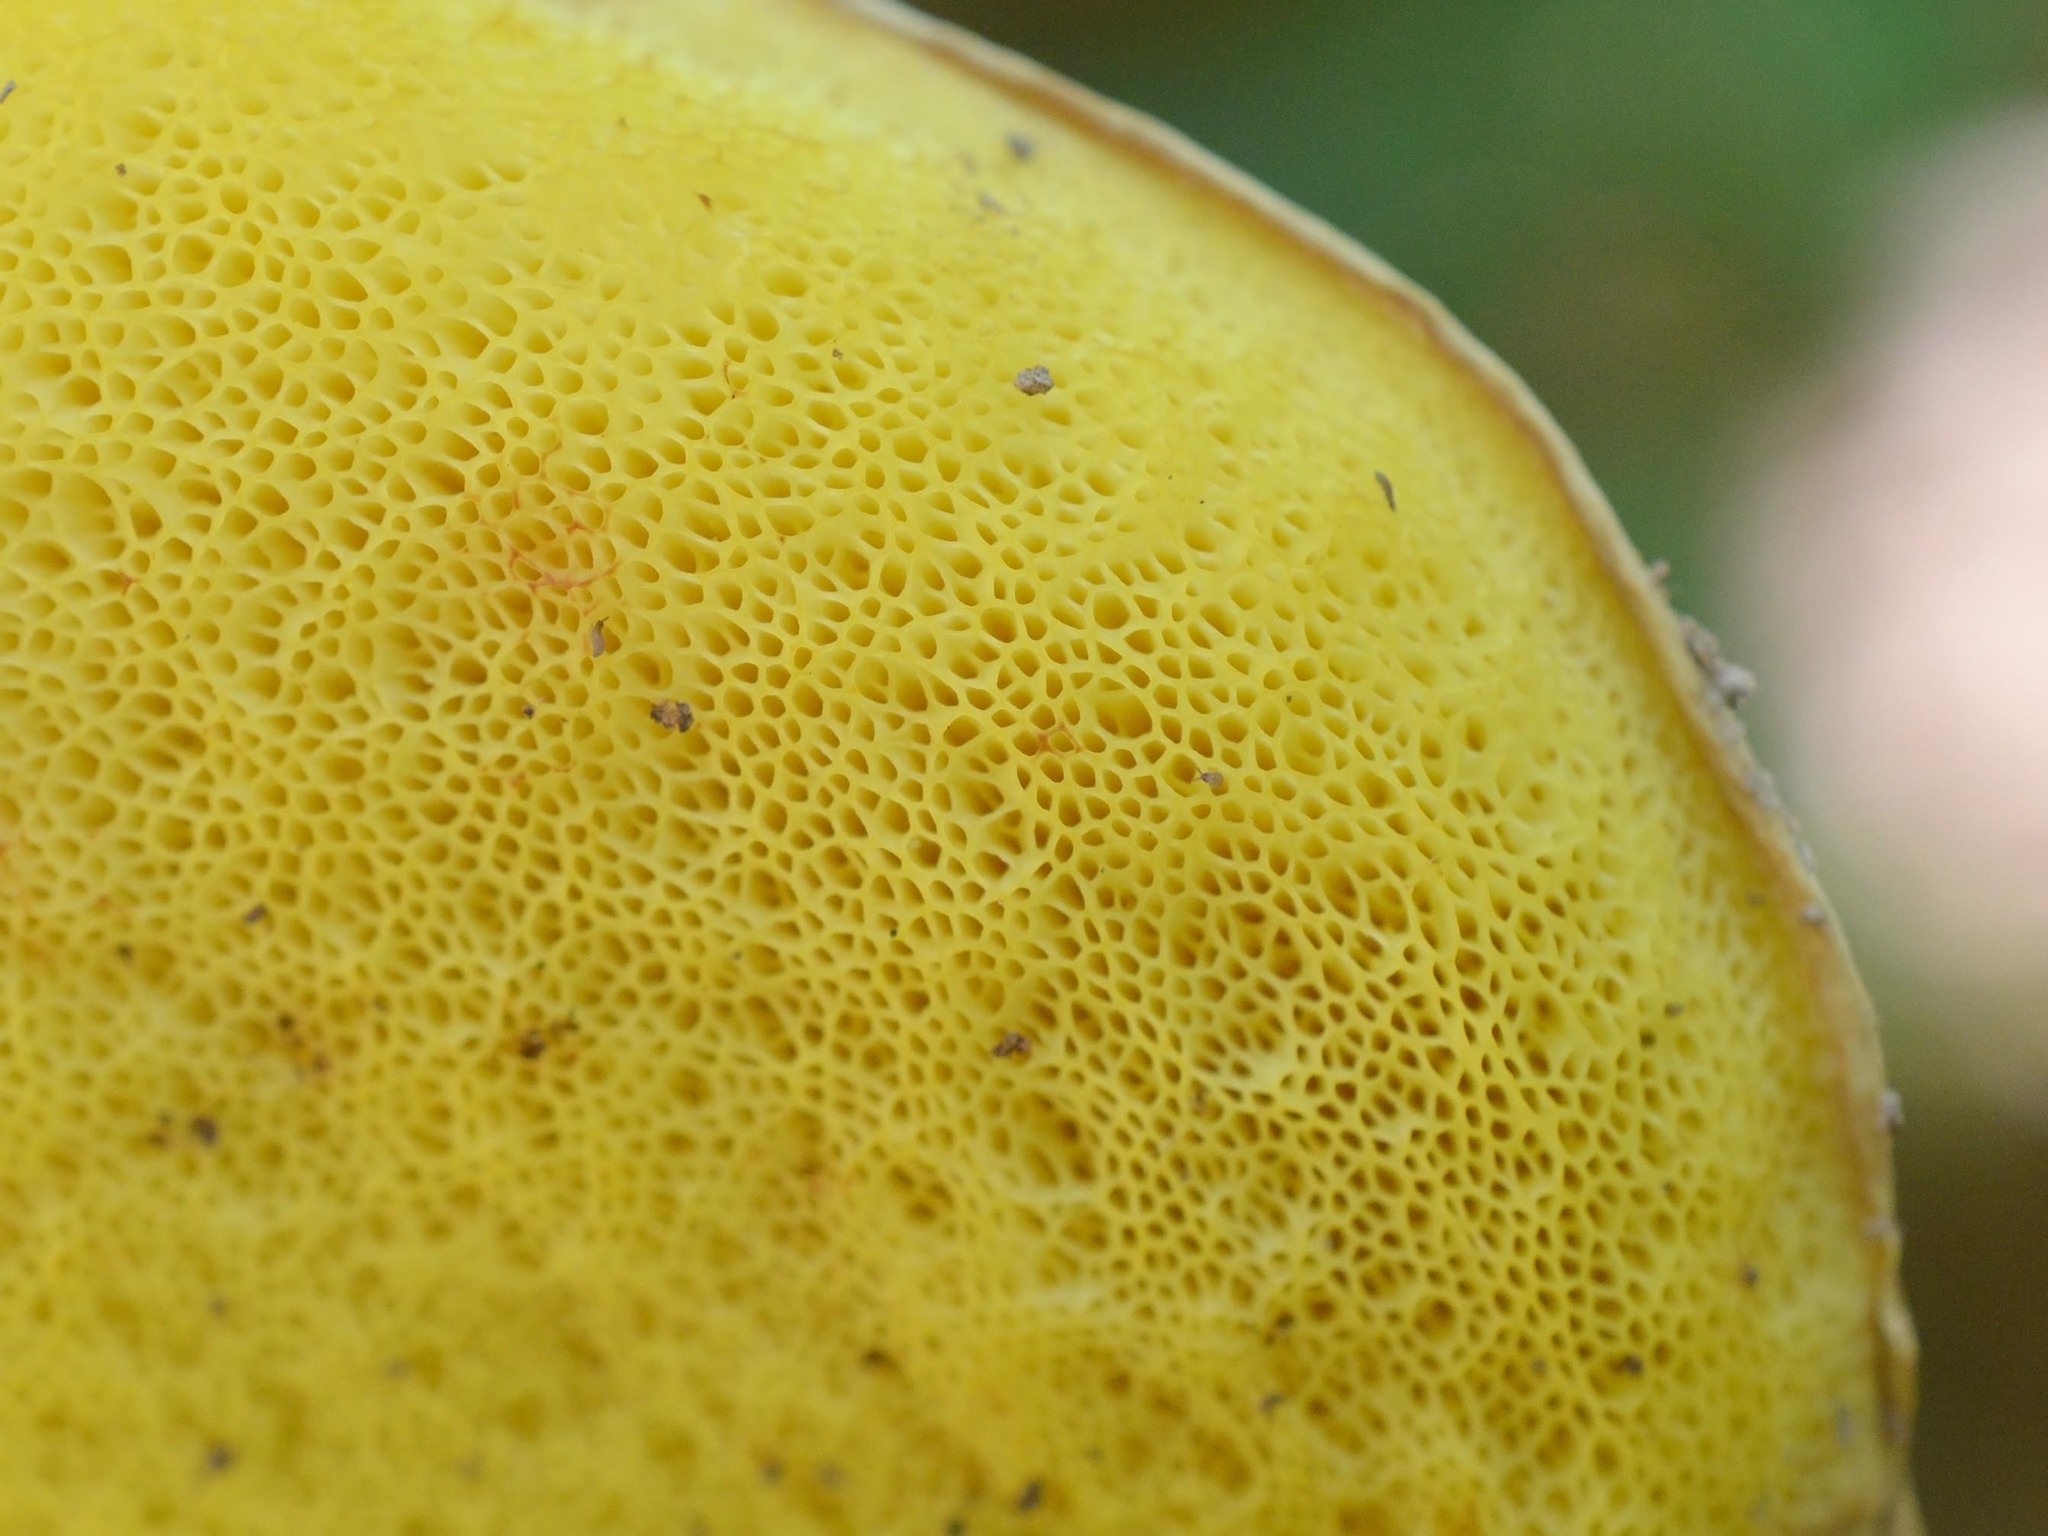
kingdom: Fungi
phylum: Basidiomycota
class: Agaricomycetes
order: Boletales
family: Boletaceae
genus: Hemileccinum
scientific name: Hemileccinum impolitum
